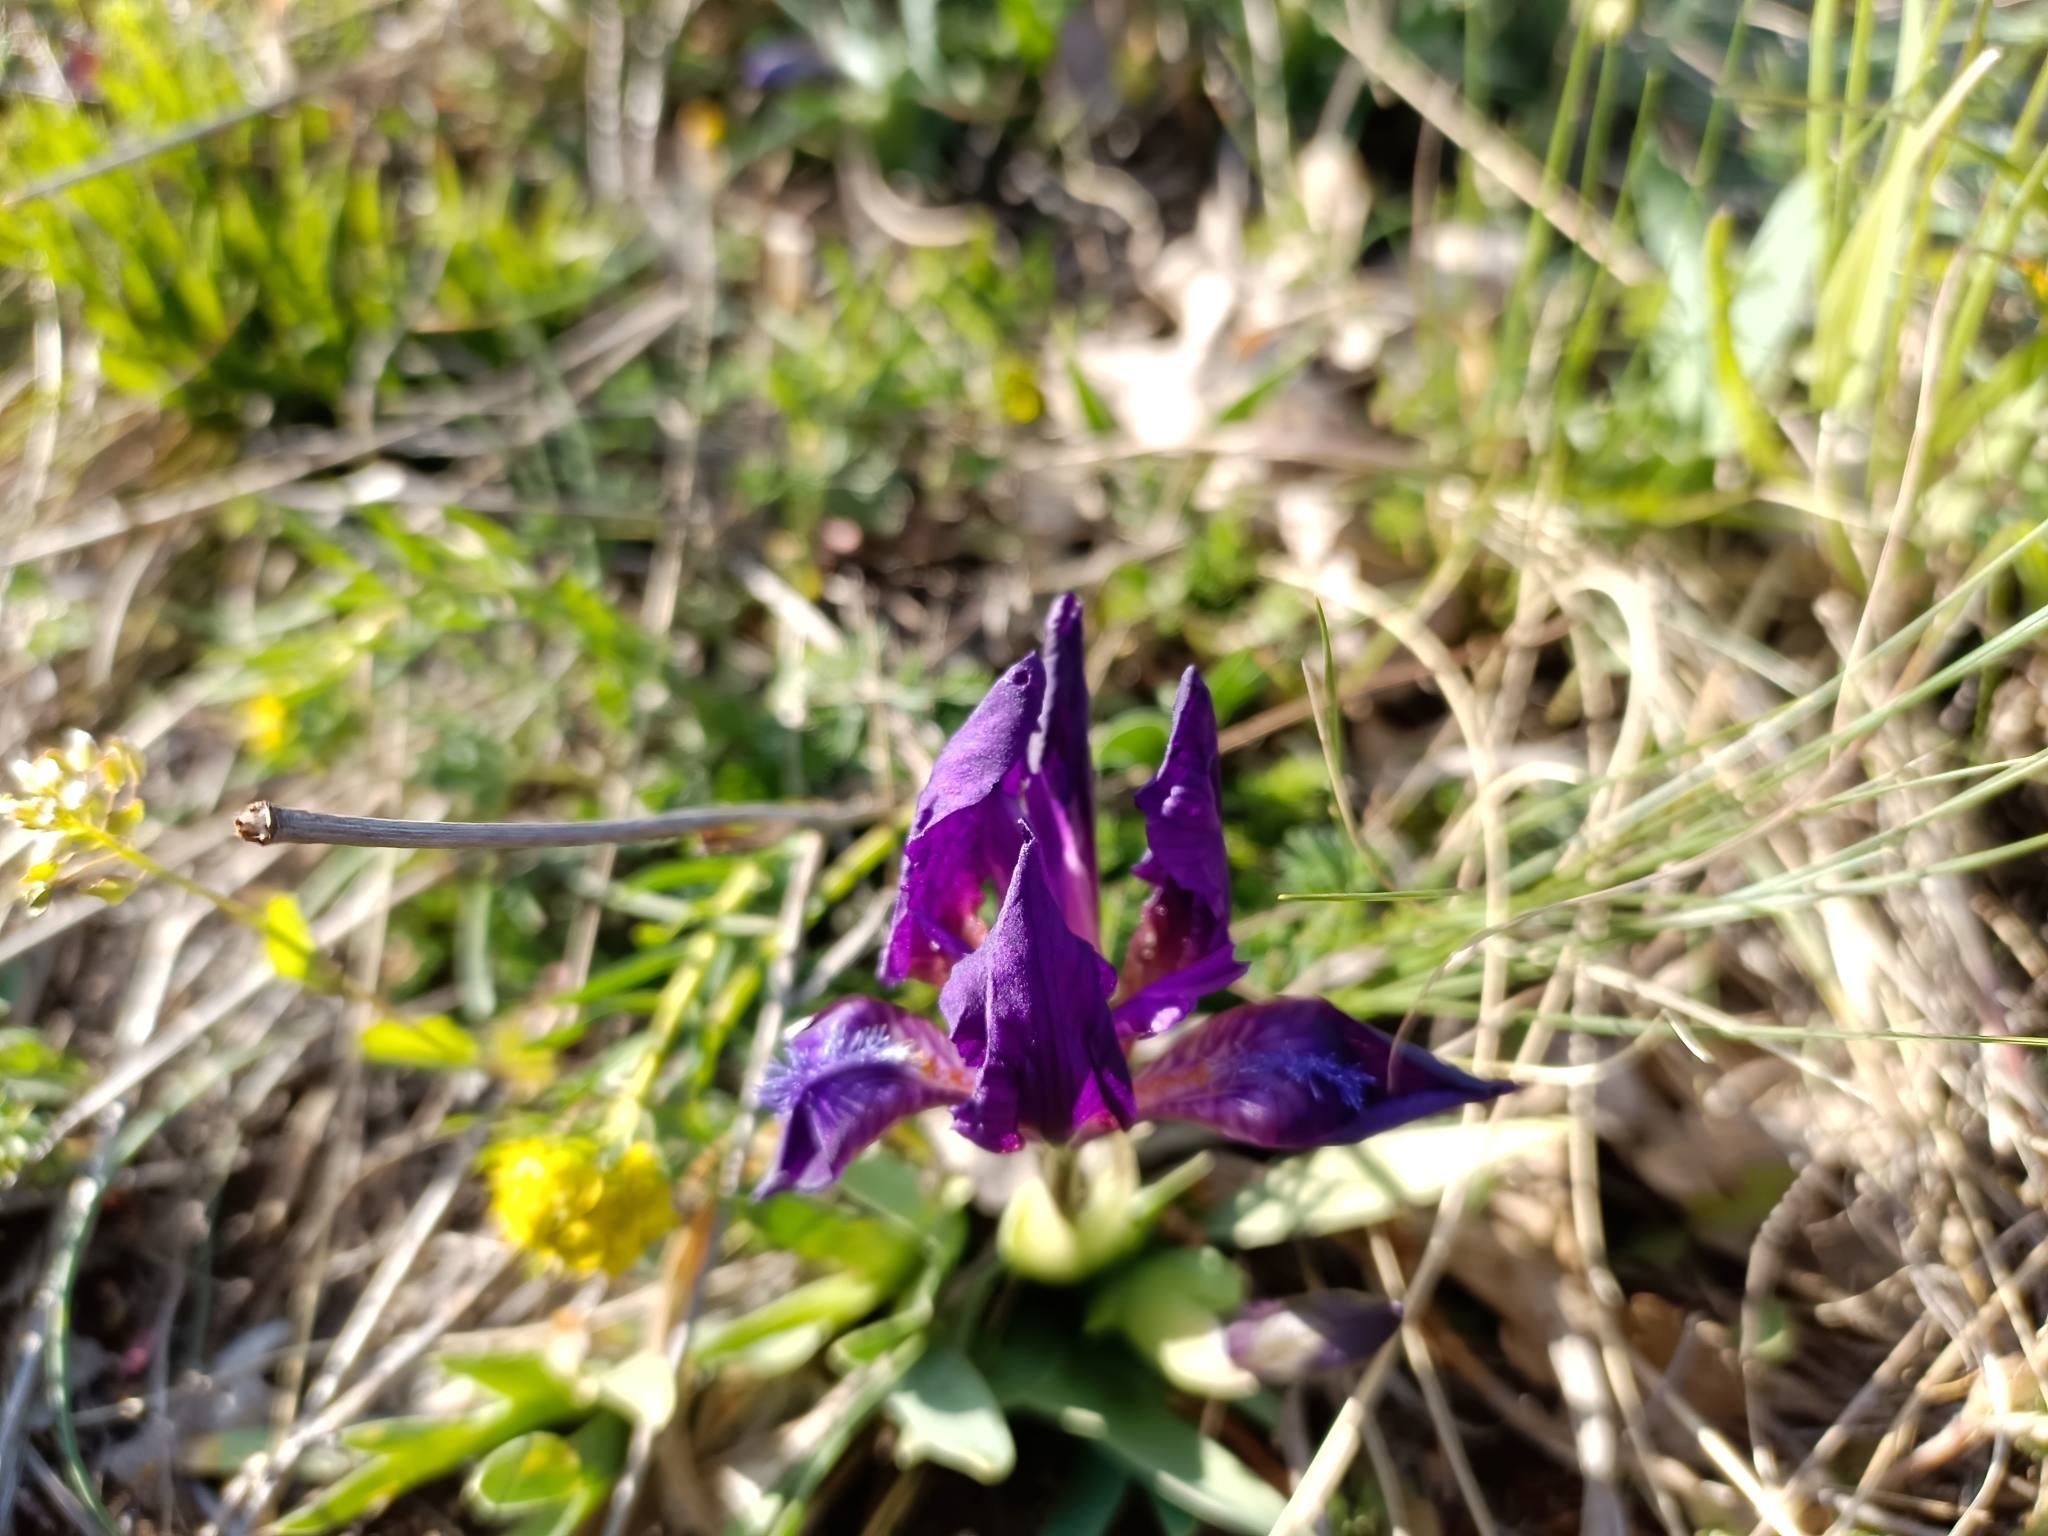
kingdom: Plantae
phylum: Tracheophyta
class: Liliopsida
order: Asparagales
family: Iridaceae
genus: Iris
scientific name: Iris pumila
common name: Dwarf iris
